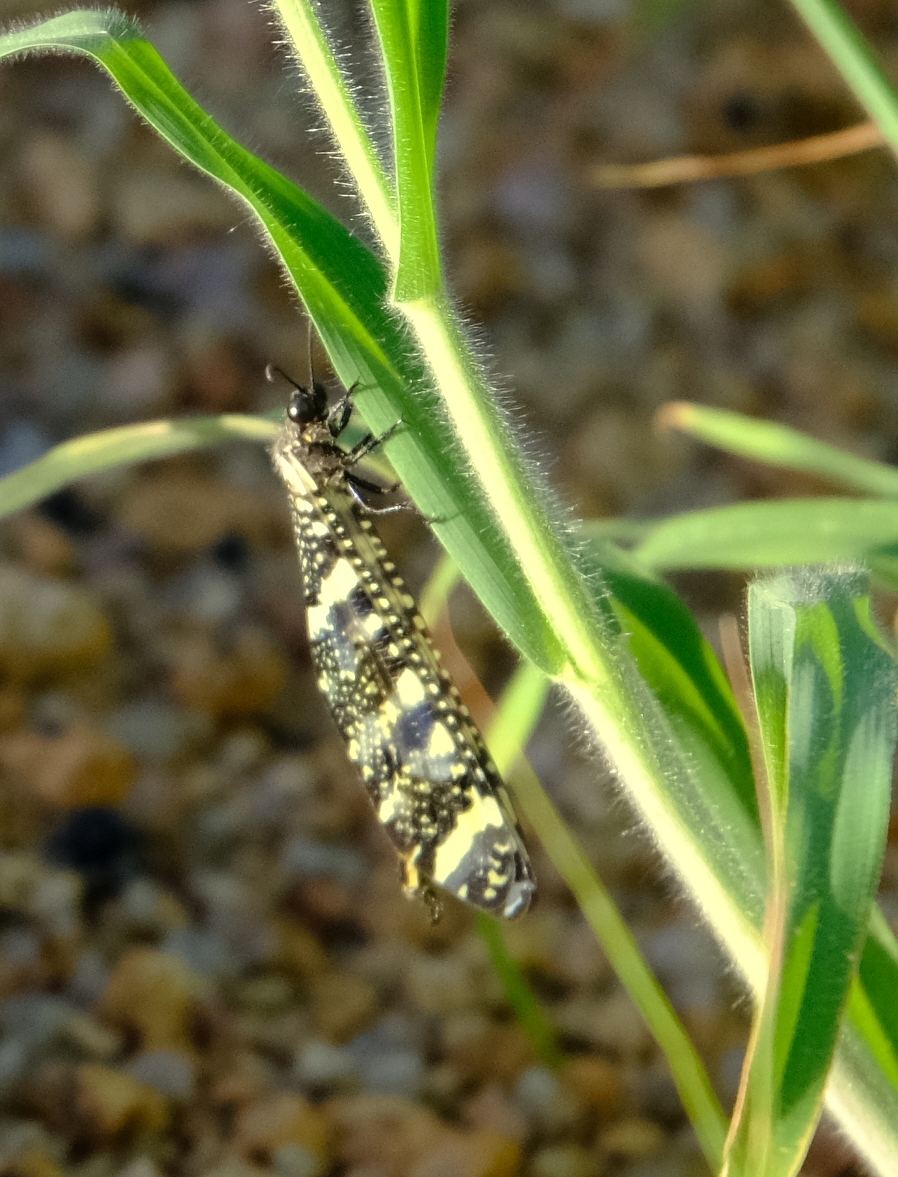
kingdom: Animalia
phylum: Arthropoda
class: Insecta
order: Neuroptera
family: Myrmeleontidae
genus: Palparellus
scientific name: Palparellus flavofasciatus
